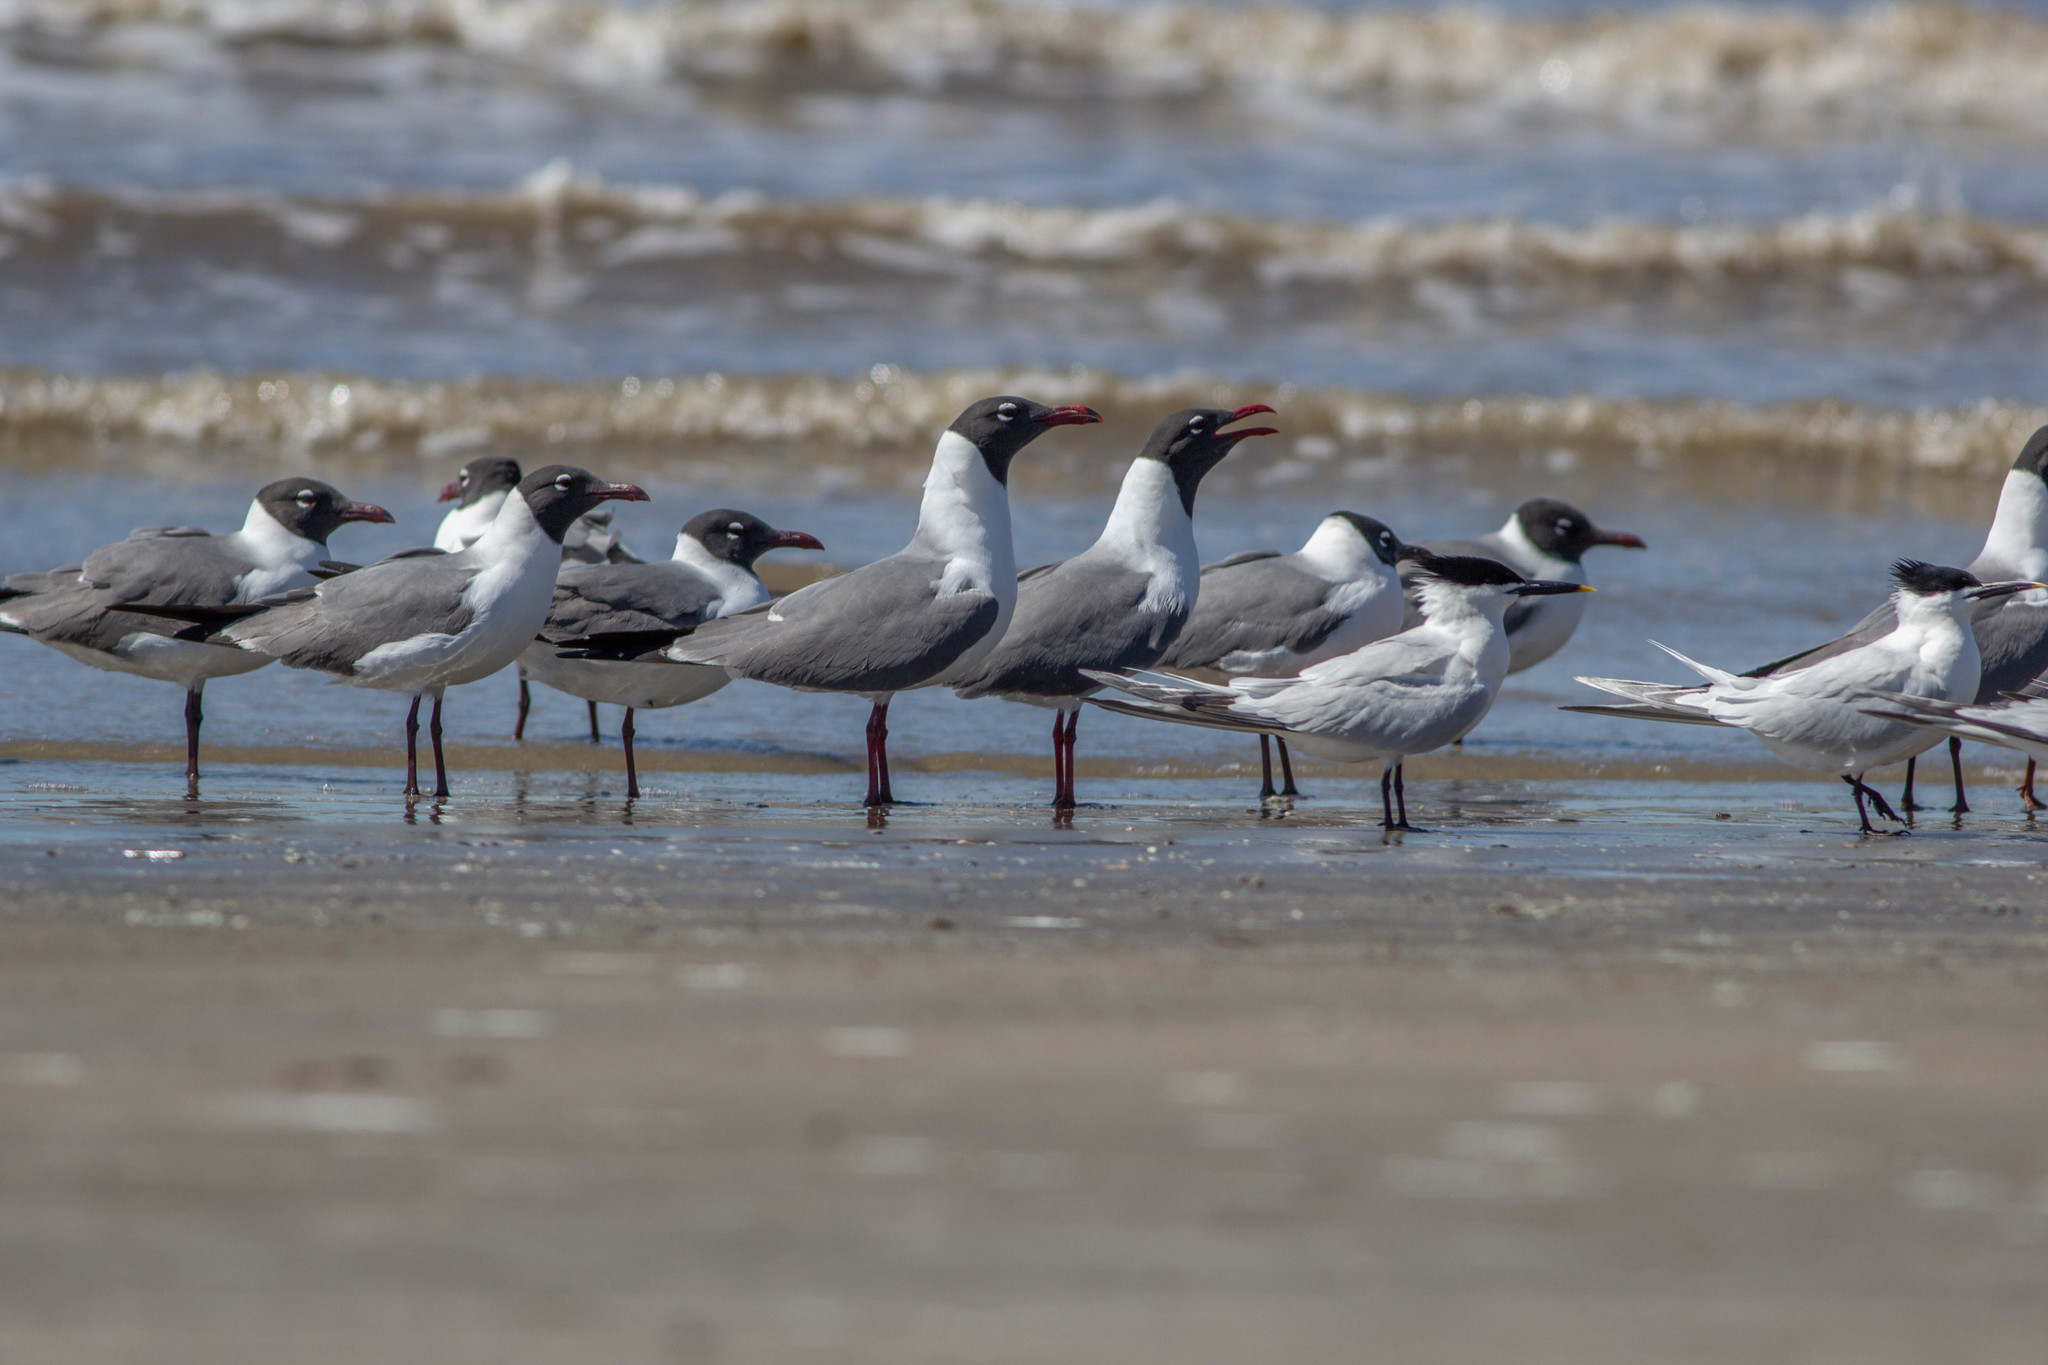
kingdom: Animalia
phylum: Chordata
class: Aves
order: Charadriiformes
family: Laridae
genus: Thalasseus
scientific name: Thalasseus sandvicensis
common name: Sandwich tern
